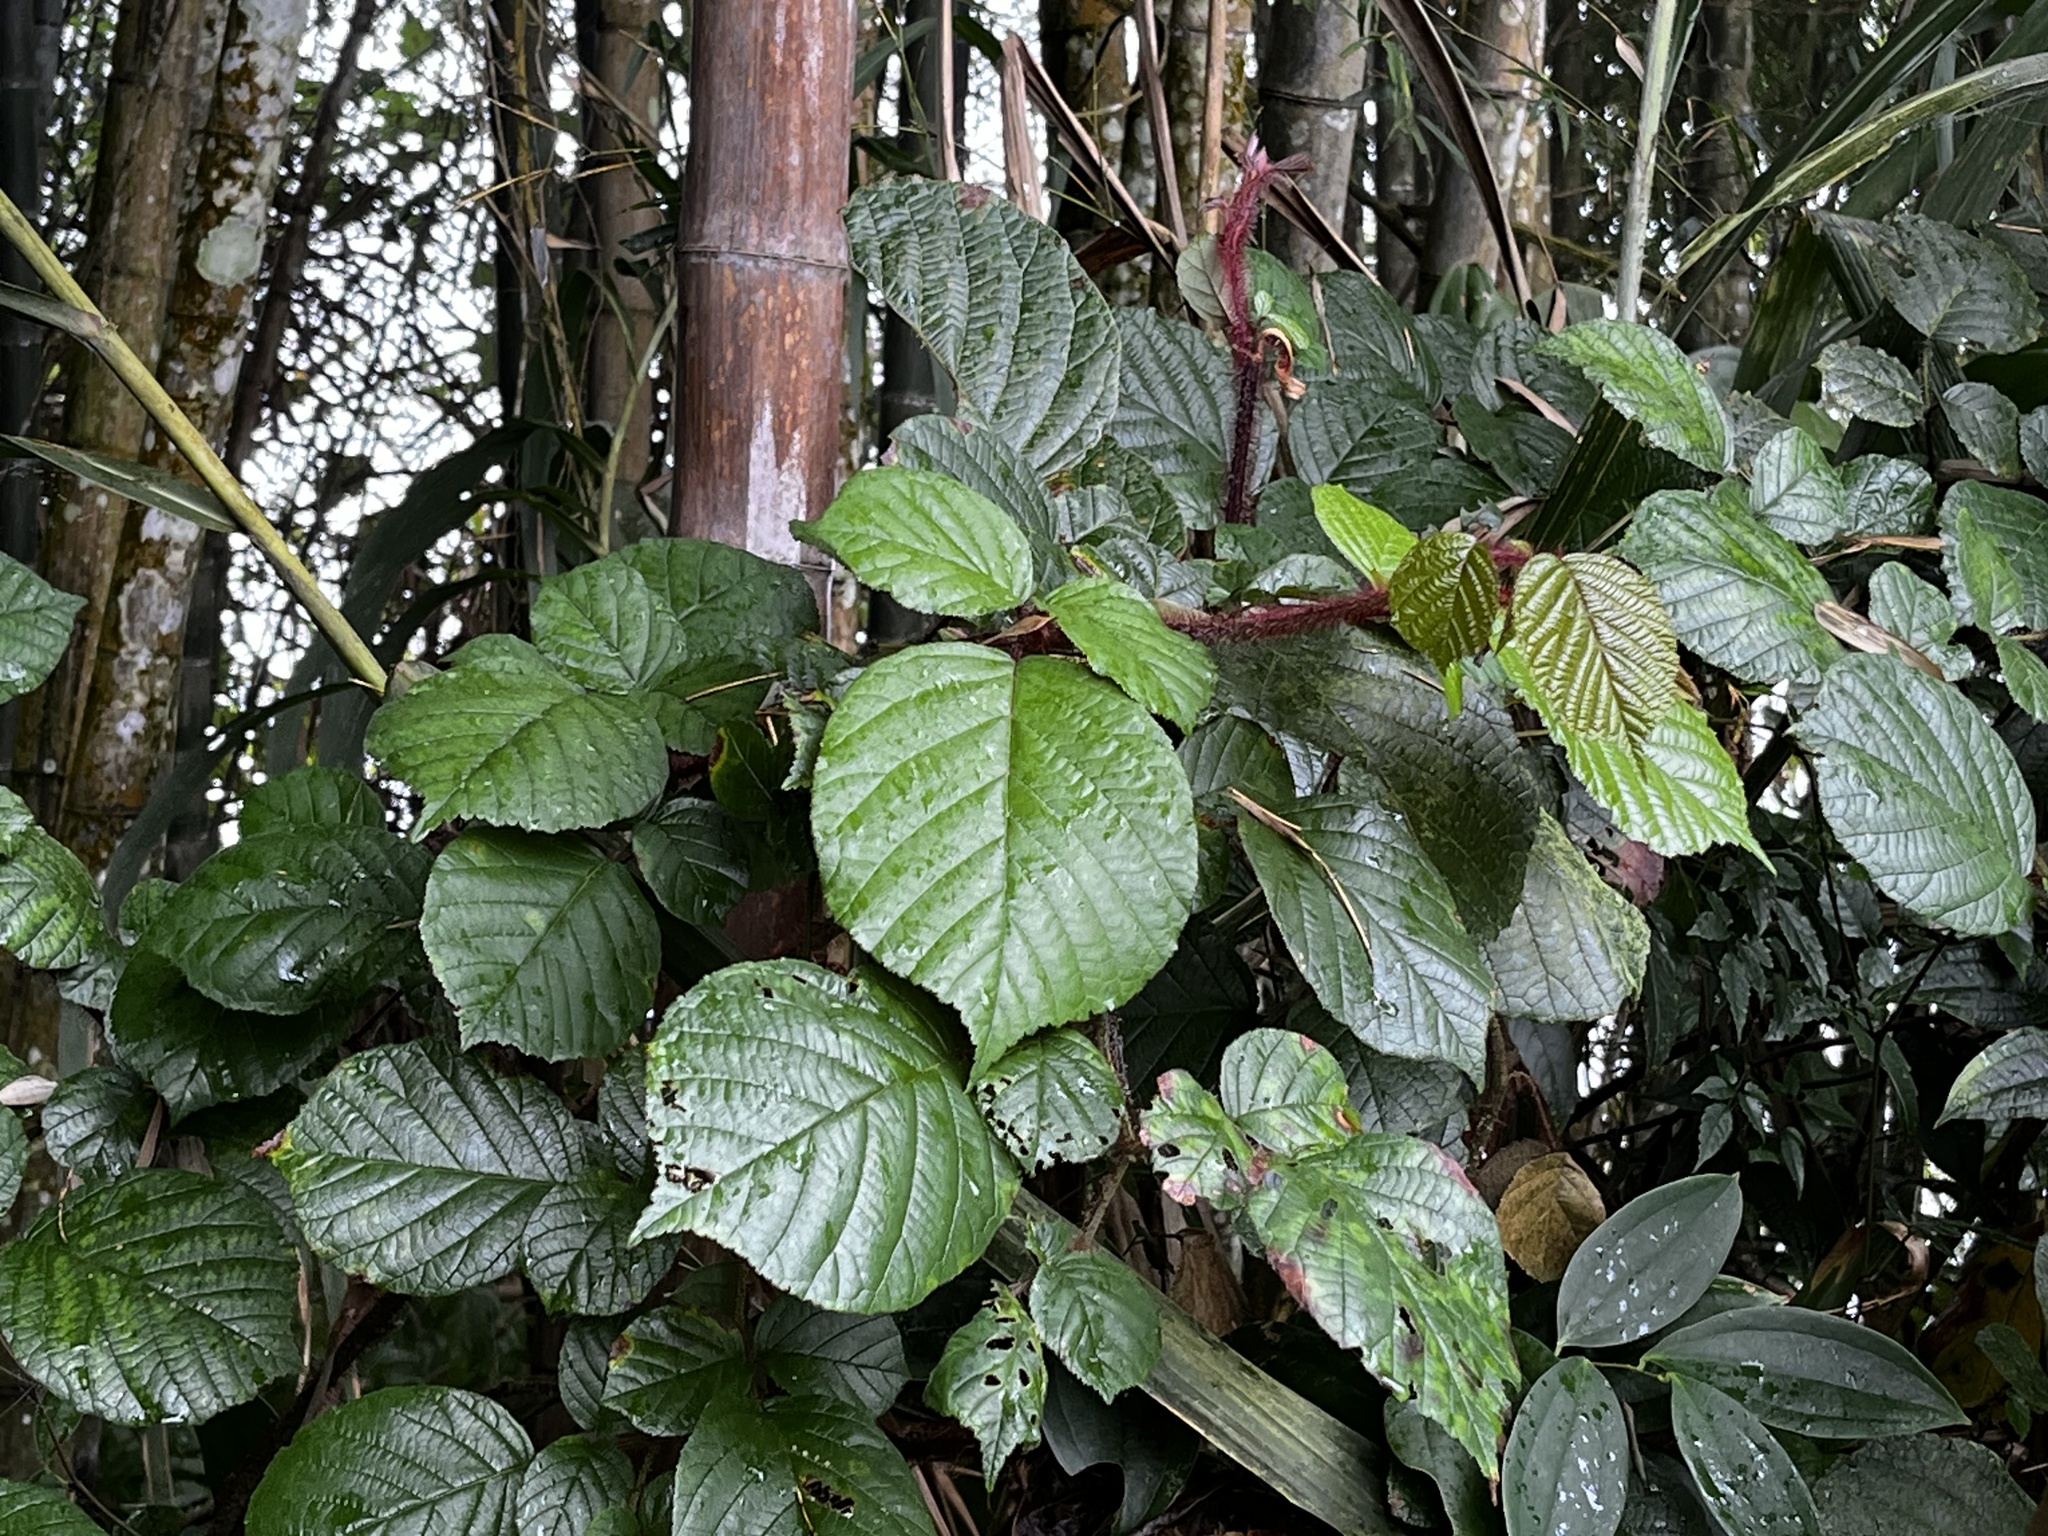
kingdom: Plantae
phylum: Tracheophyta
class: Magnoliopsida
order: Rosales
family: Rosaceae
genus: Rubus
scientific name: Rubus ellipticus
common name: Cheeseberry
